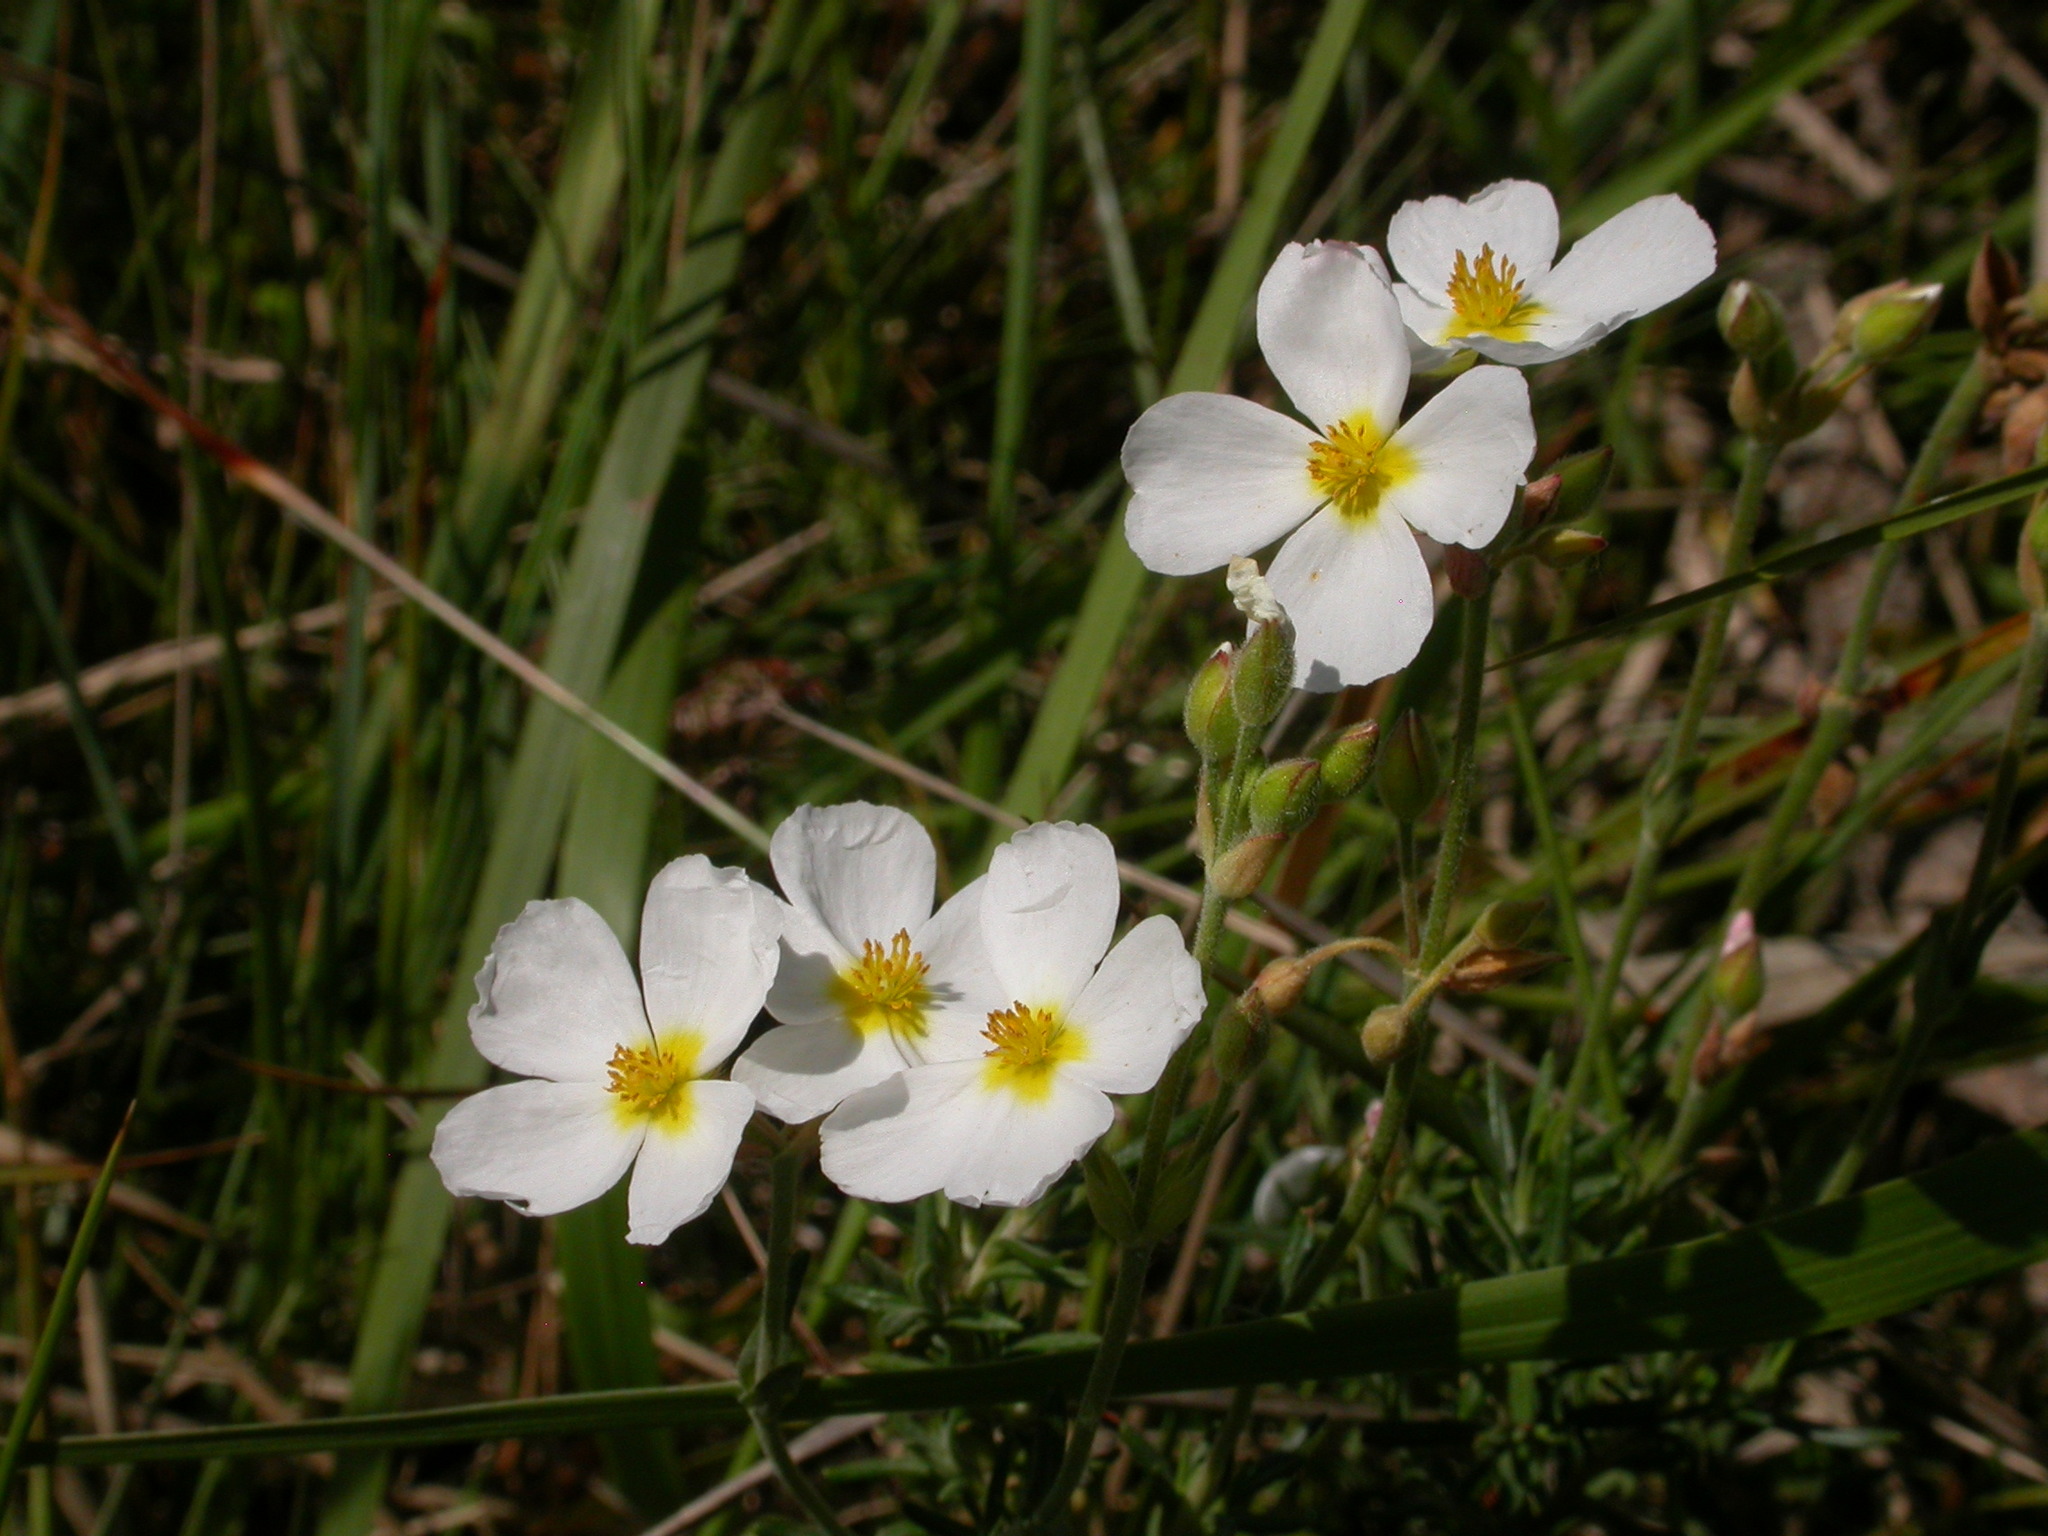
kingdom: Plantae
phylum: Tracheophyta
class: Magnoliopsida
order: Malvales
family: Cistaceae
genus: Helianthemum
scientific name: Helianthemum apenninum
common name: White rock-rose
